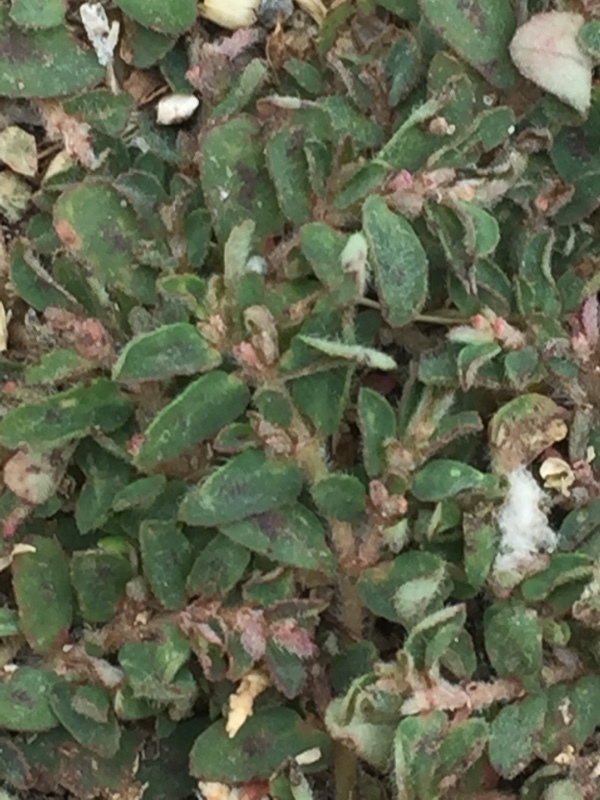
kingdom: Plantae
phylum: Tracheophyta
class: Magnoliopsida
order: Malpighiales
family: Euphorbiaceae
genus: Euphorbia
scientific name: Euphorbia maculata
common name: Spotted spurge
